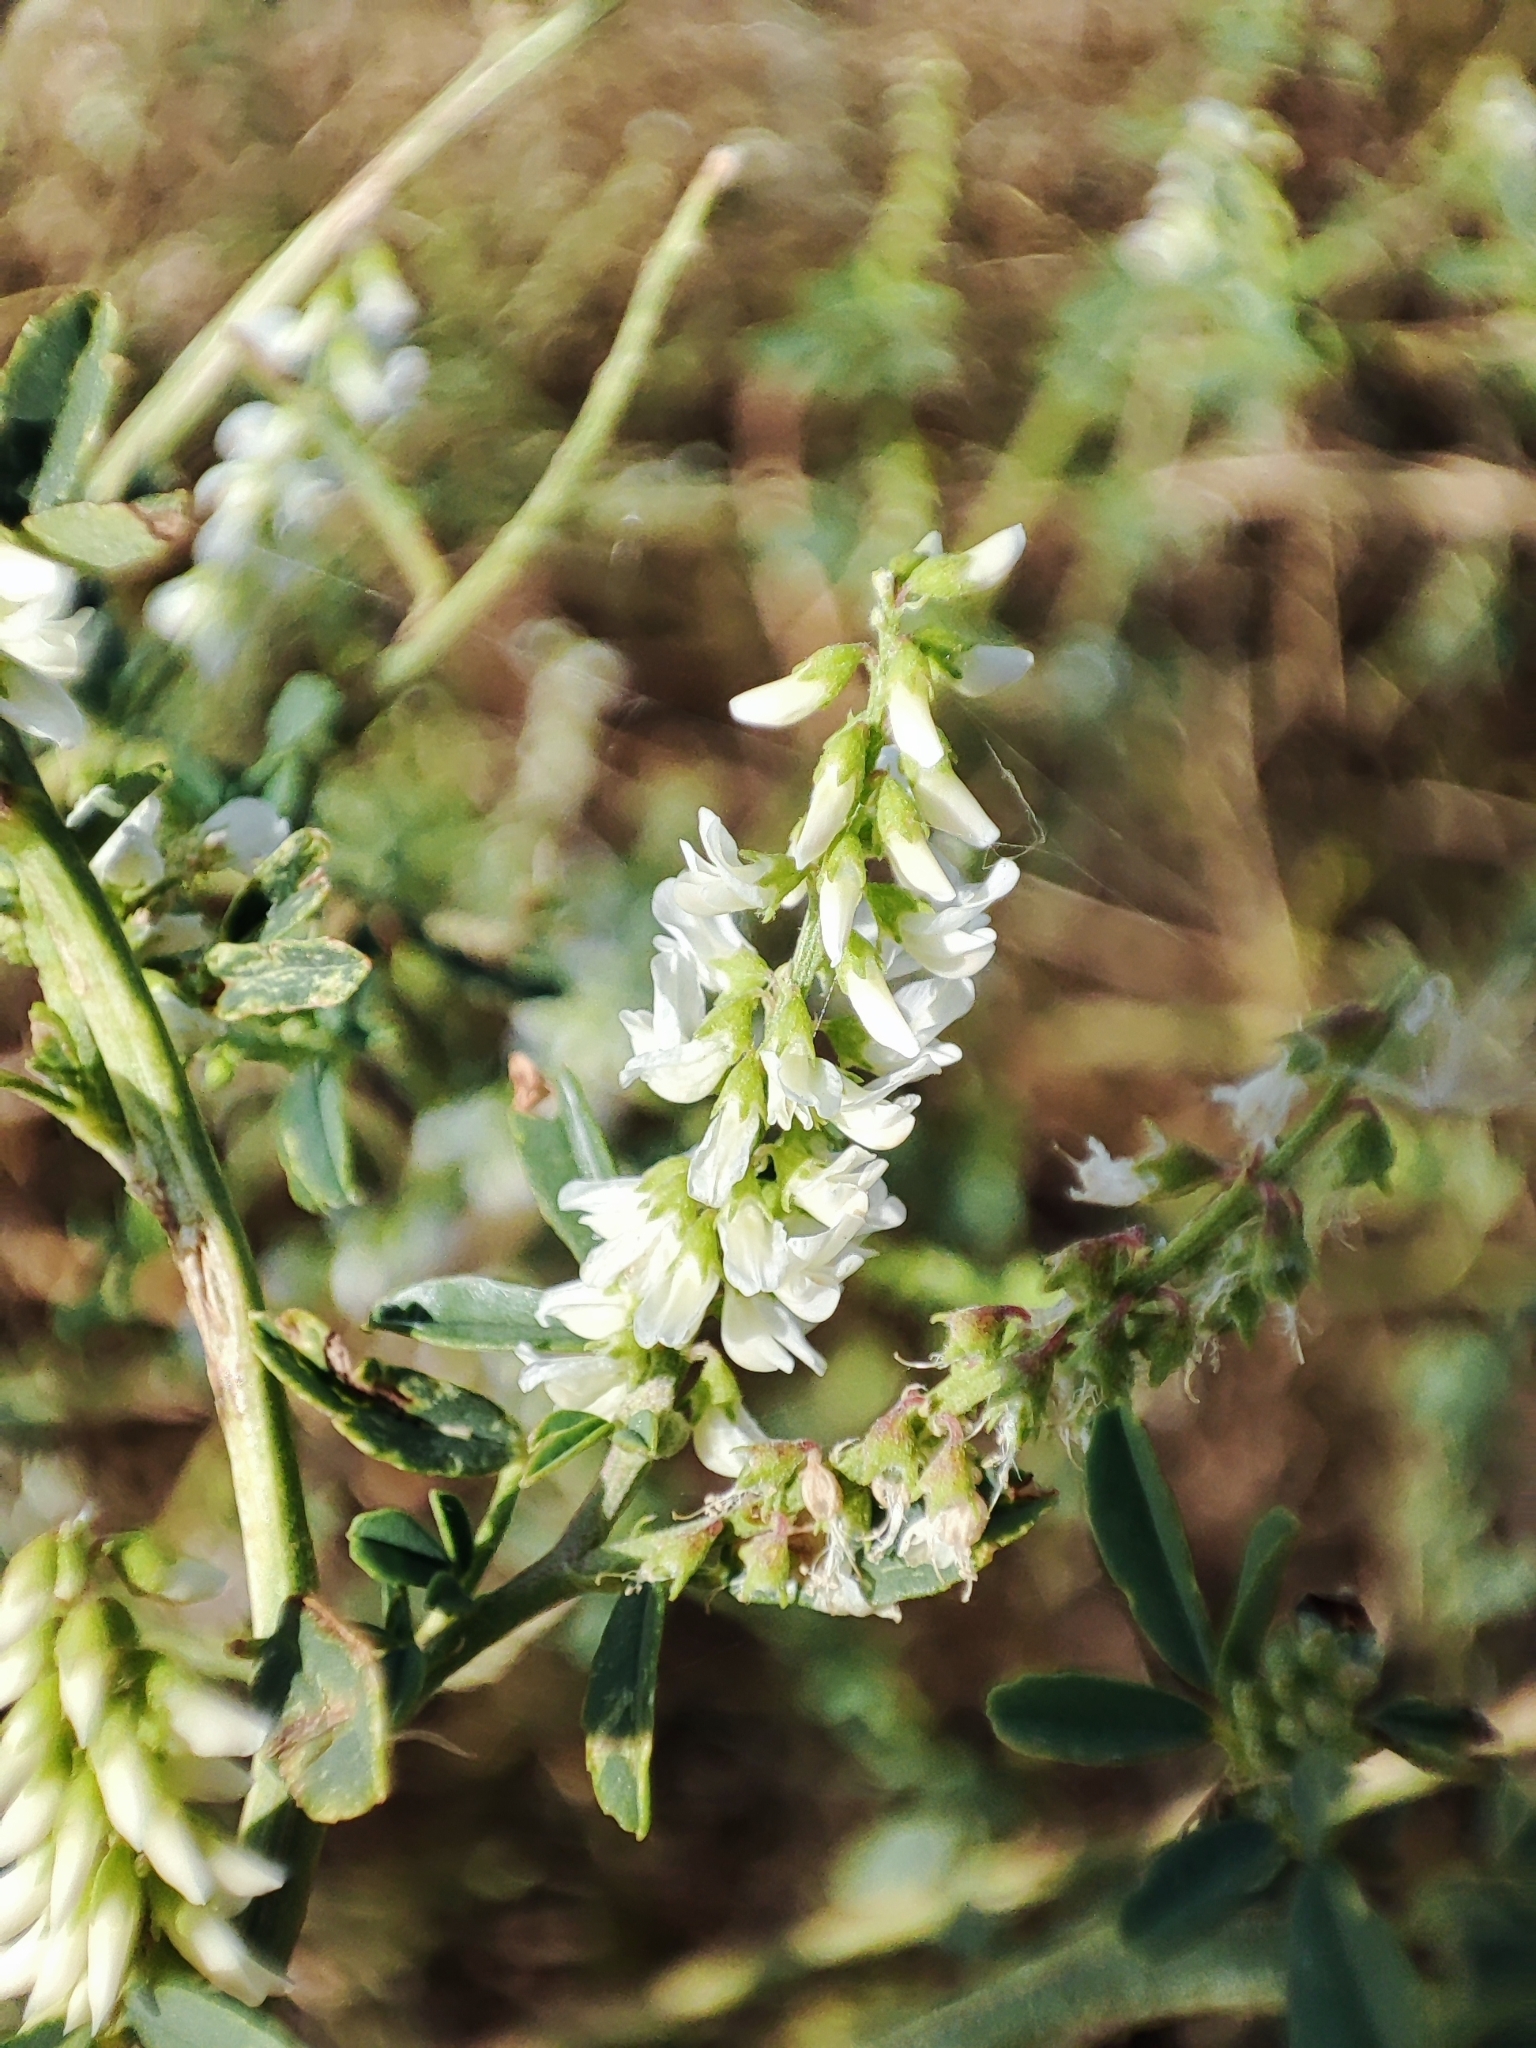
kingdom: Plantae
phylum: Tracheophyta
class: Magnoliopsida
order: Fabales
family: Fabaceae
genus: Melilotus
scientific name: Melilotus albus
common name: White melilot
